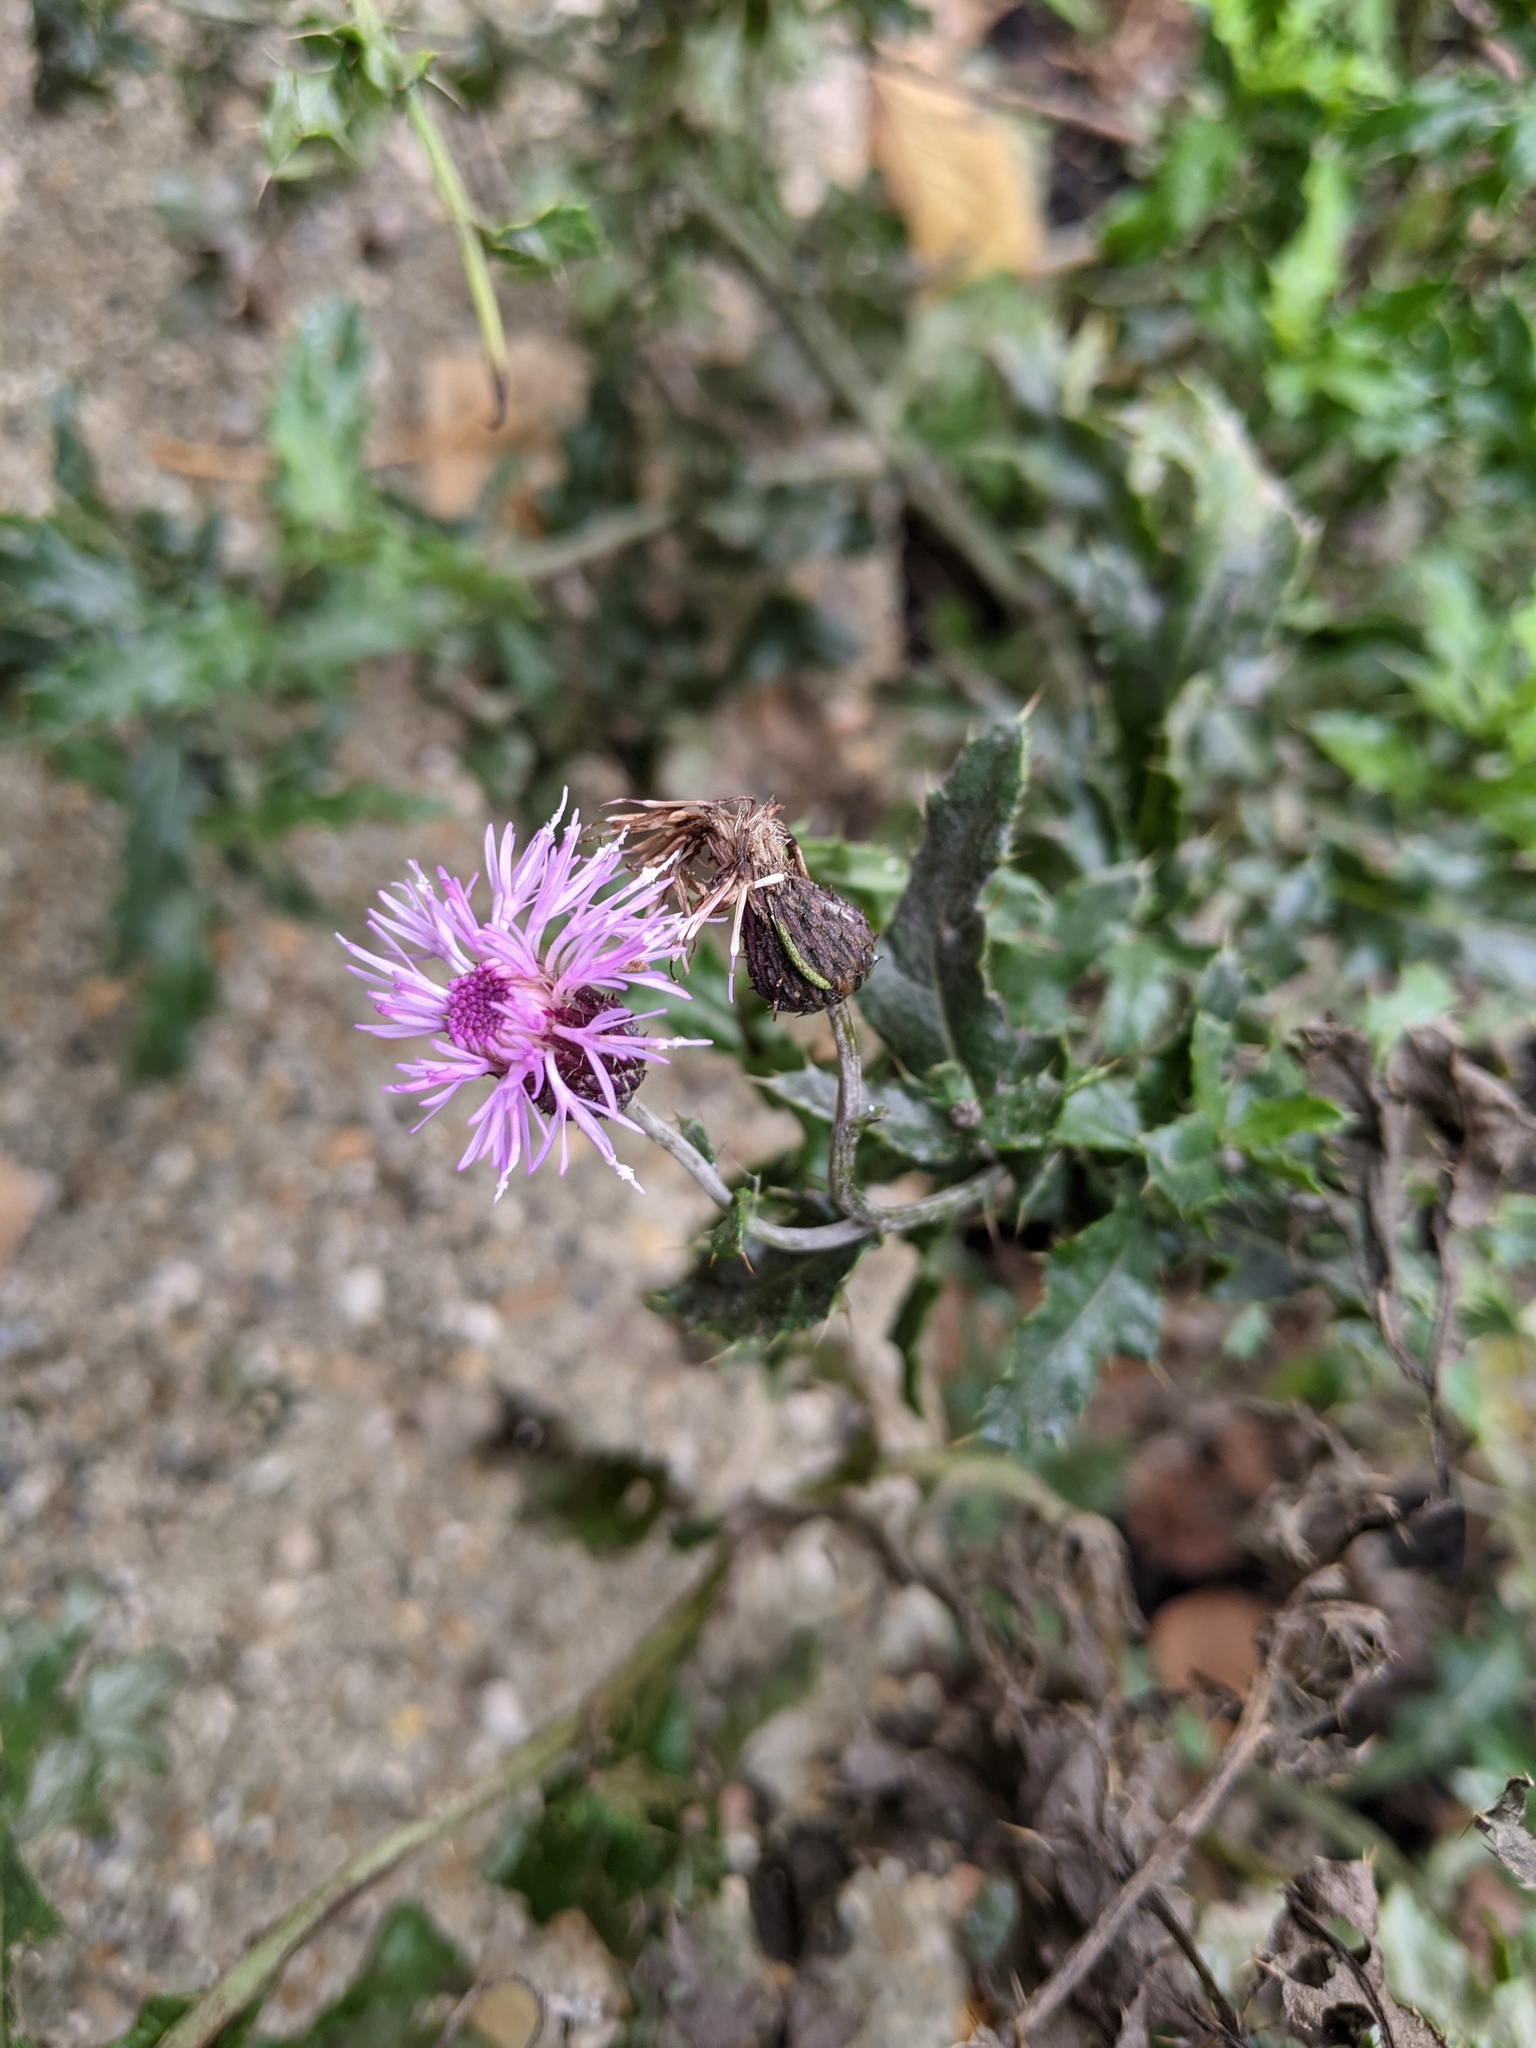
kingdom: Plantae
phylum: Tracheophyta
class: Magnoliopsida
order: Asterales
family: Asteraceae
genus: Cirsium
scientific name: Cirsium arvense
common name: Creeping thistle
